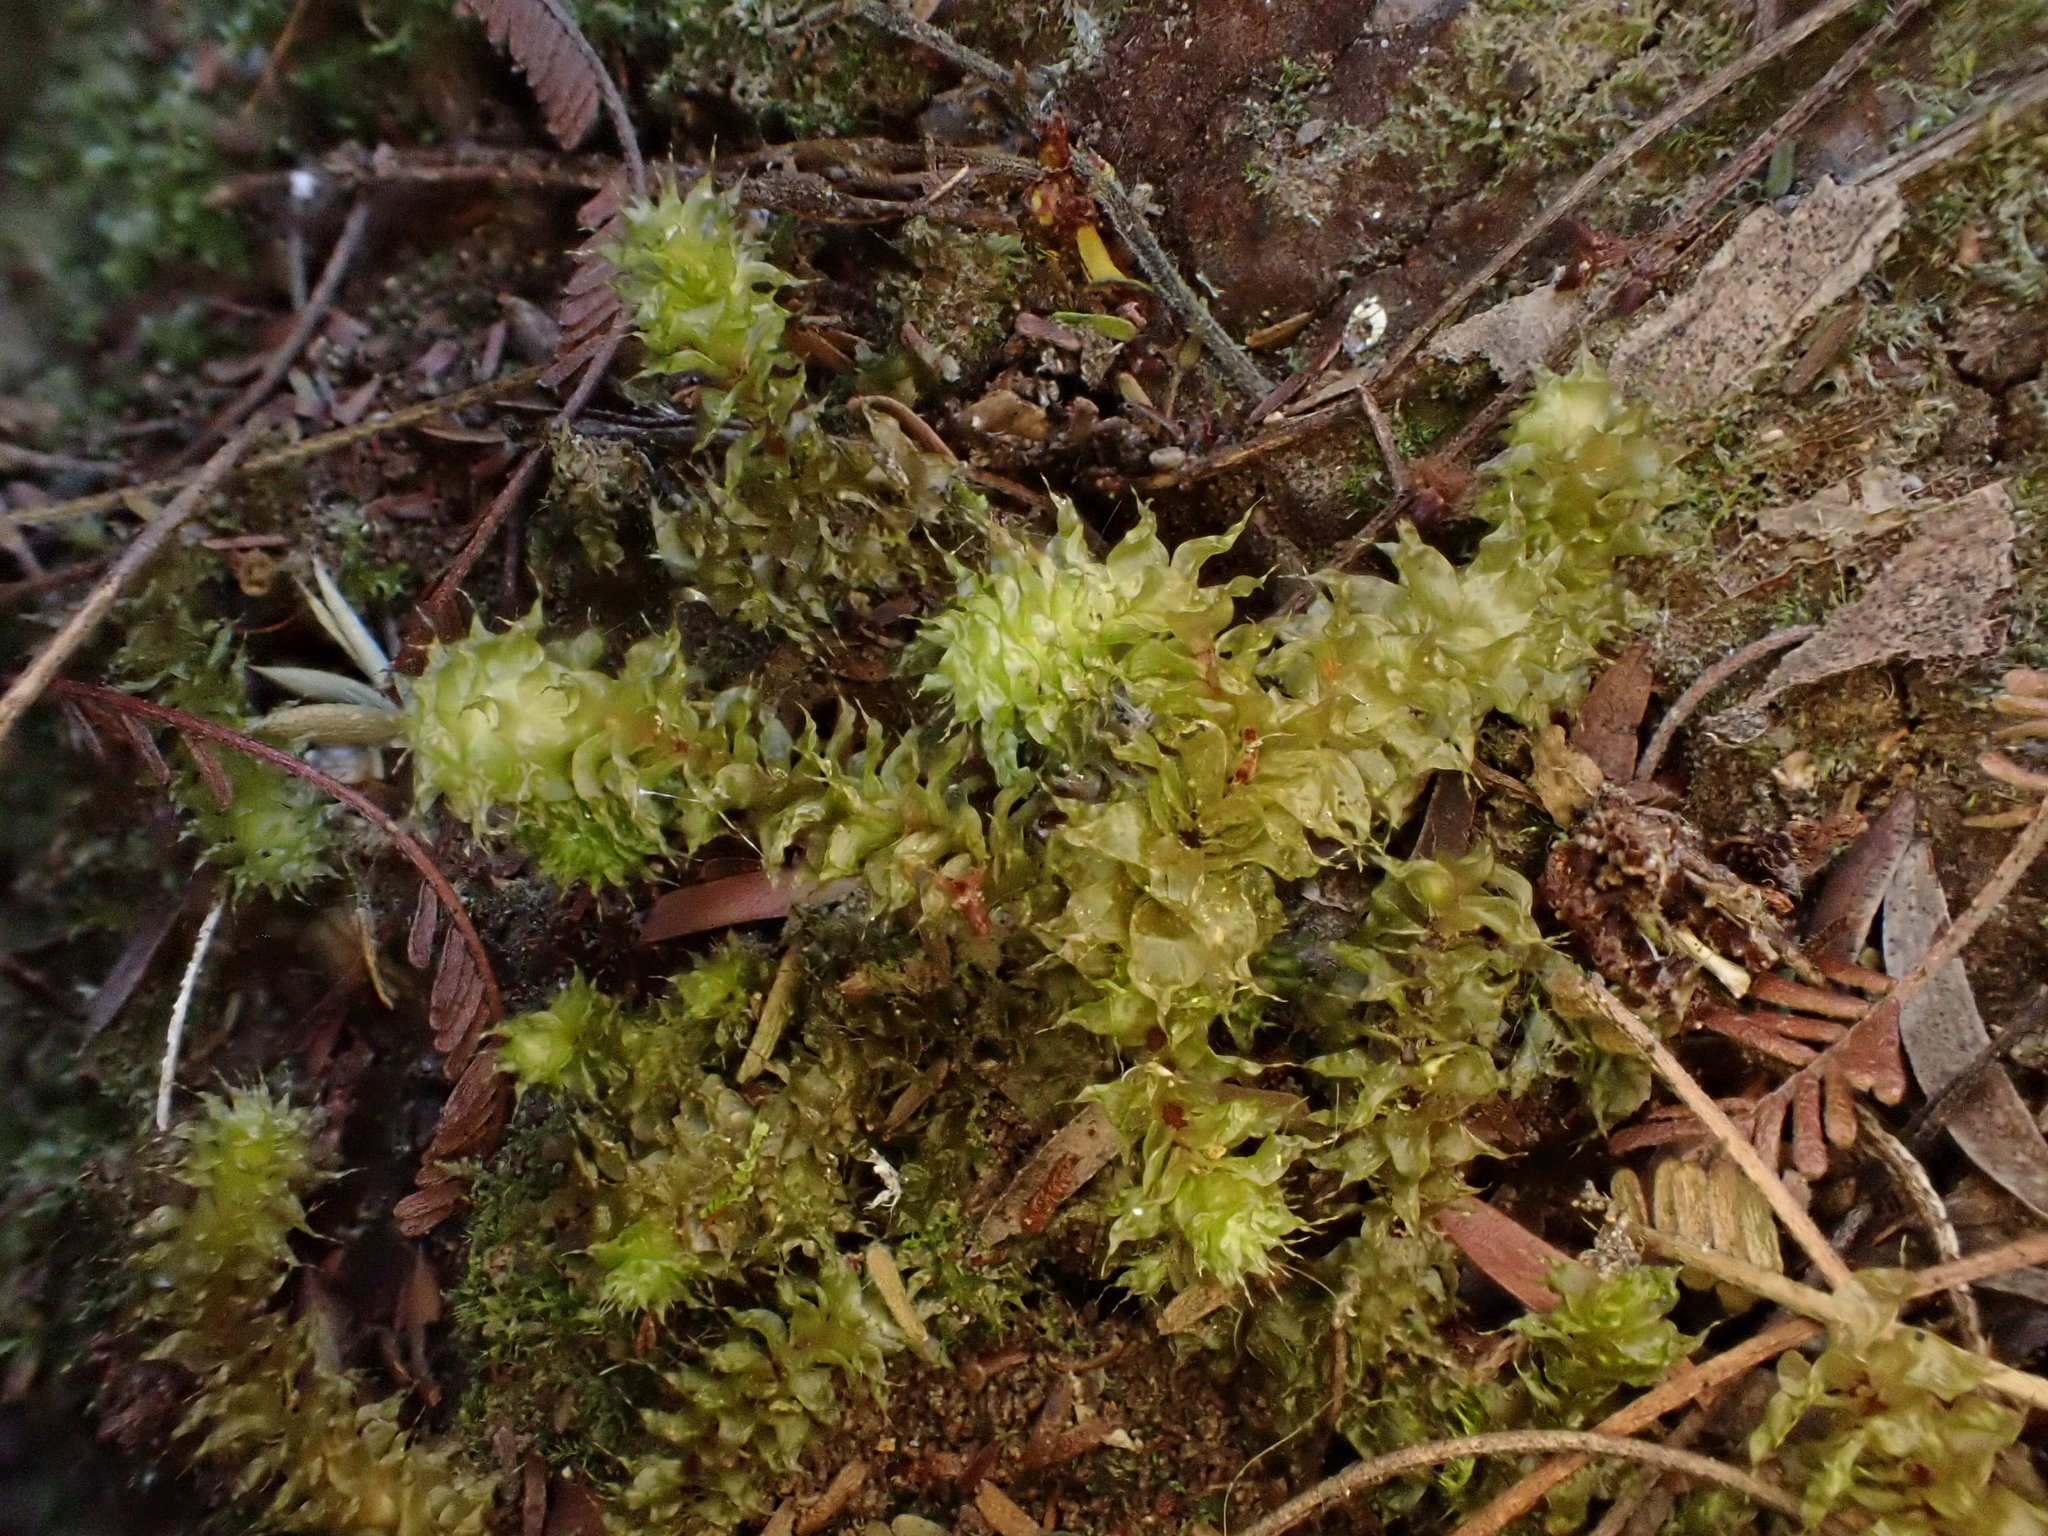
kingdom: Plantae
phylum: Bryophyta
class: Bryopsida
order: Ptychomniales
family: Ptychomniaceae
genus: Ptychomnion
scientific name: Ptychomnion aciculare
